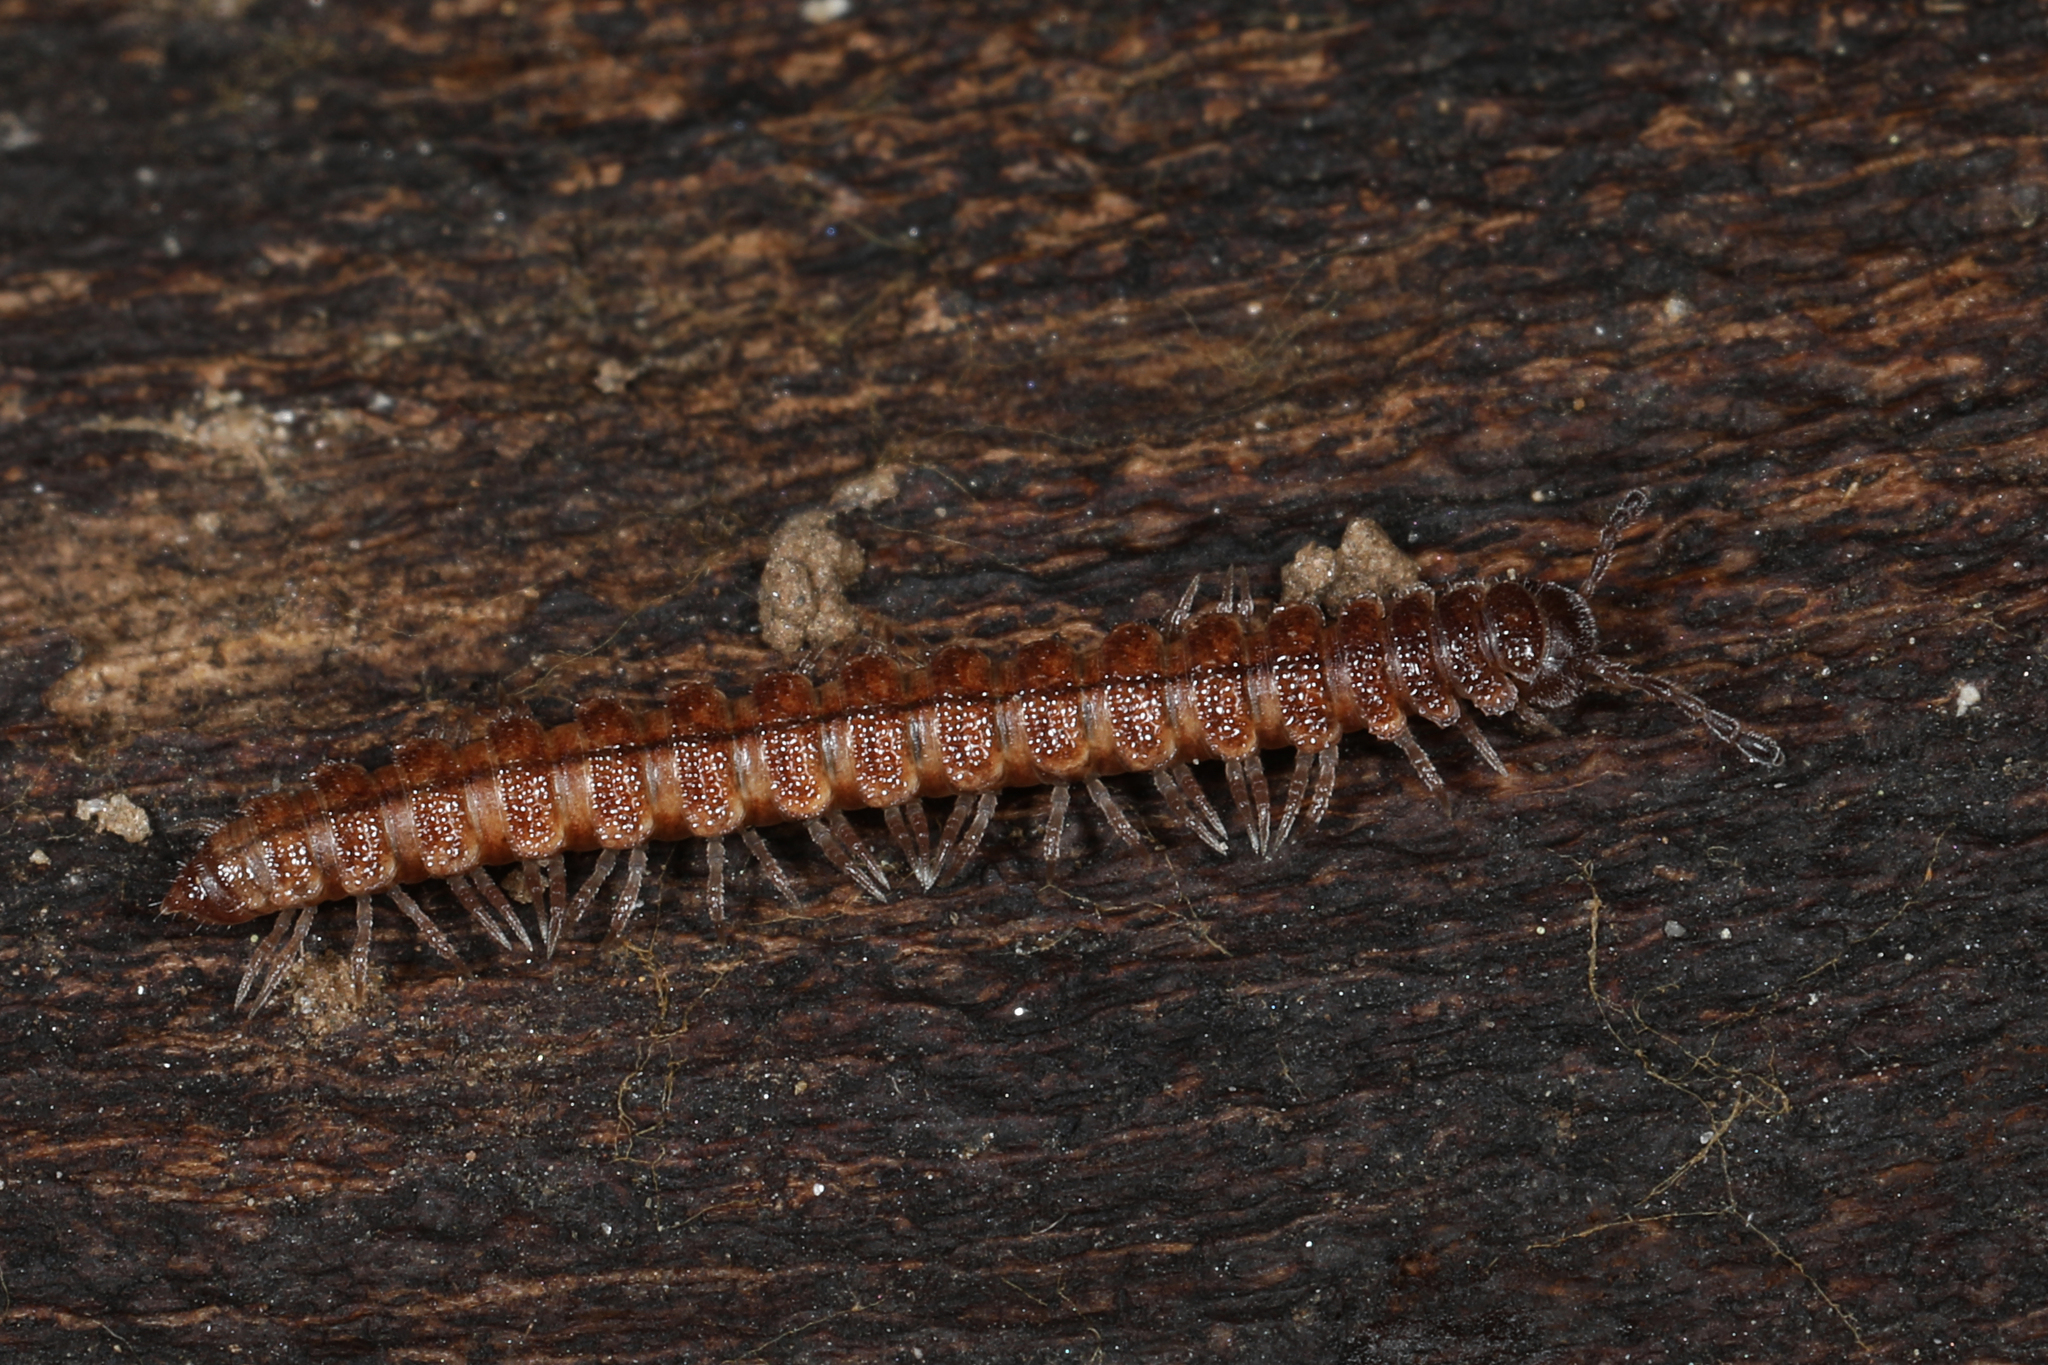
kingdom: Animalia
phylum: Arthropoda
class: Diplopoda
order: Polydesmida
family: Polydesmidae
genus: Scytonotus
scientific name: Scytonotus granulatus
